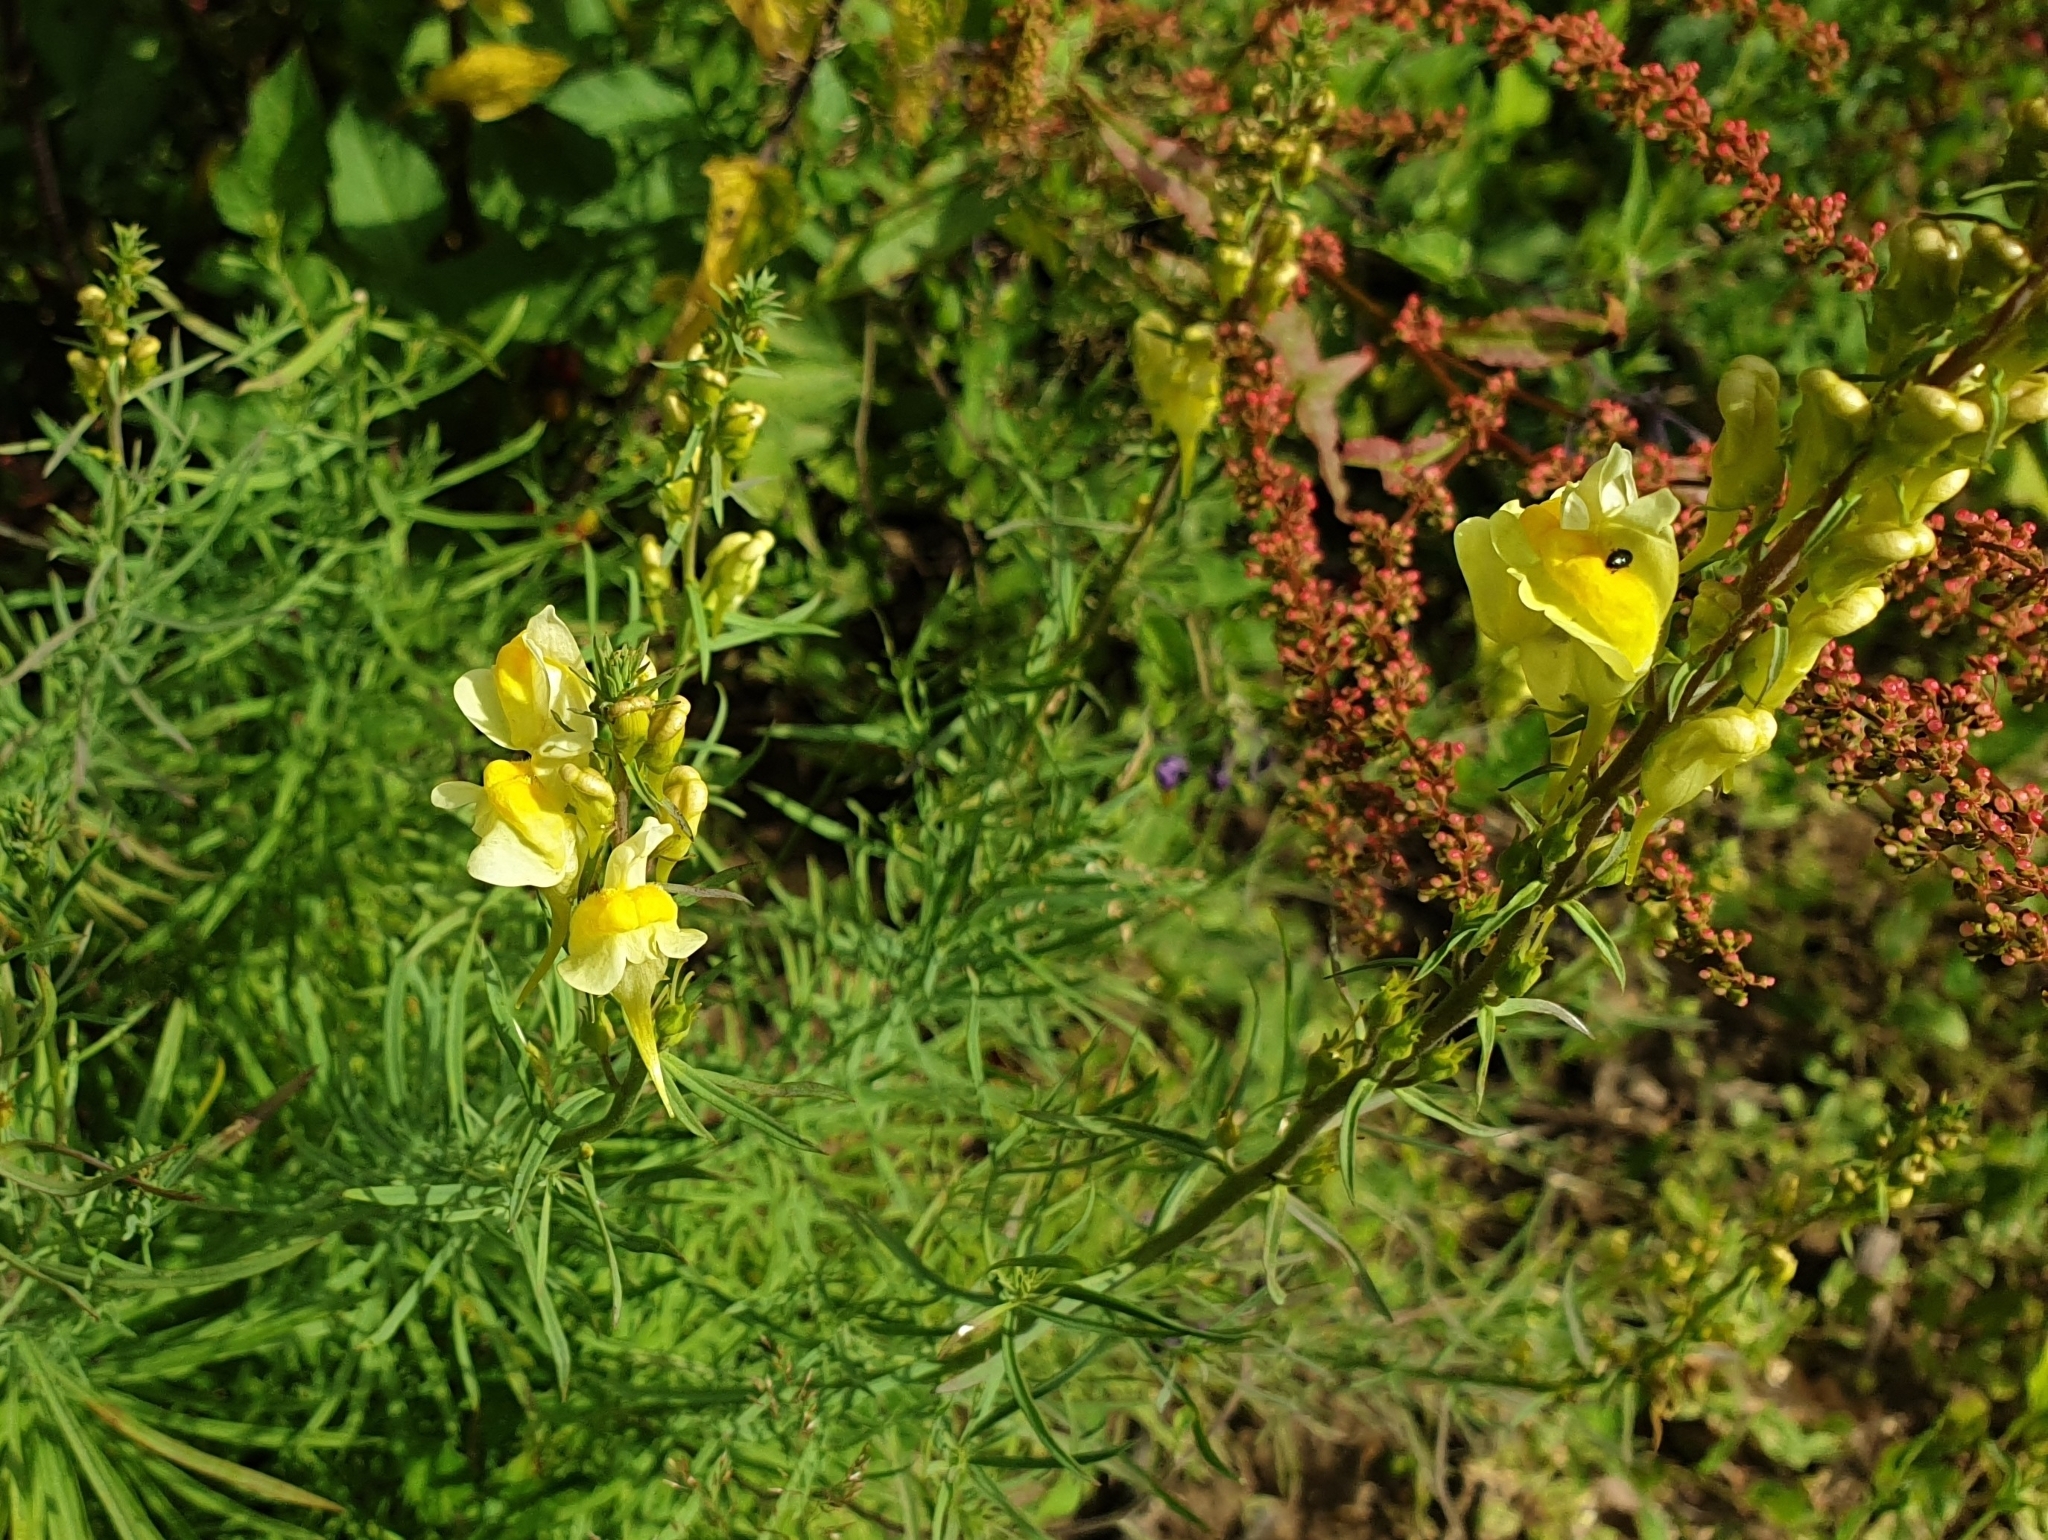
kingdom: Plantae
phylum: Tracheophyta
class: Magnoliopsida
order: Lamiales
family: Plantaginaceae
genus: Linaria
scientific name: Linaria vulgaris
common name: Butter and eggs
